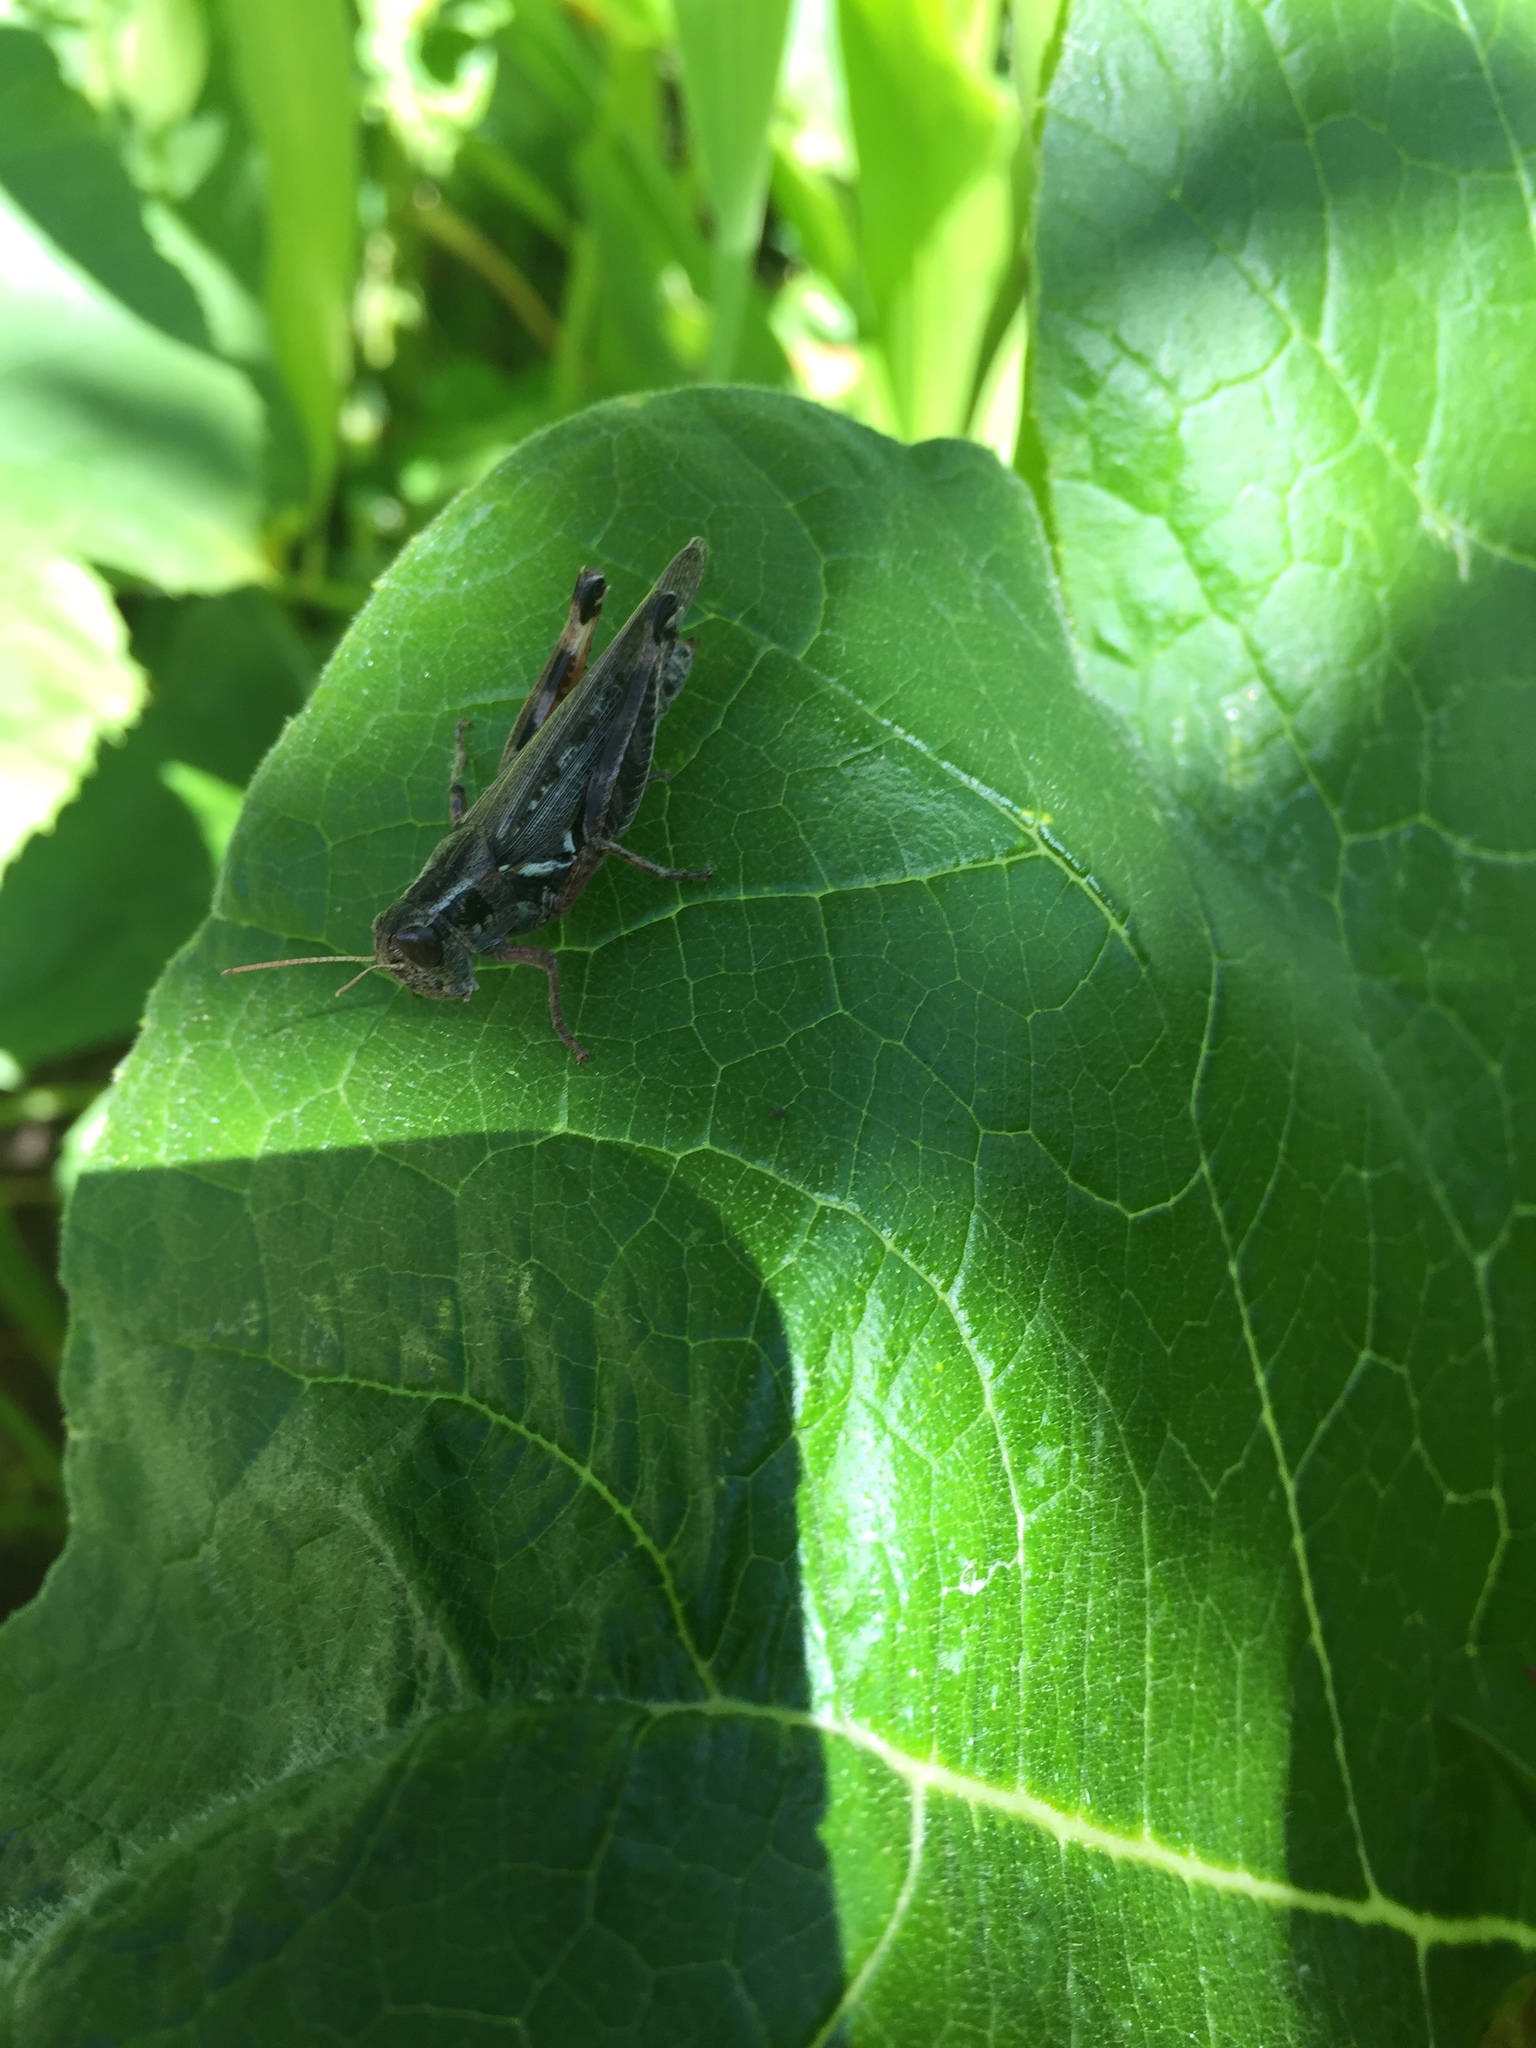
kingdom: Animalia
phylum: Arthropoda
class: Insecta
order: Orthoptera
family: Acrididae
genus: Melanoplus
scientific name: Melanoplus sanguinipes
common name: Migratory grasshopper
